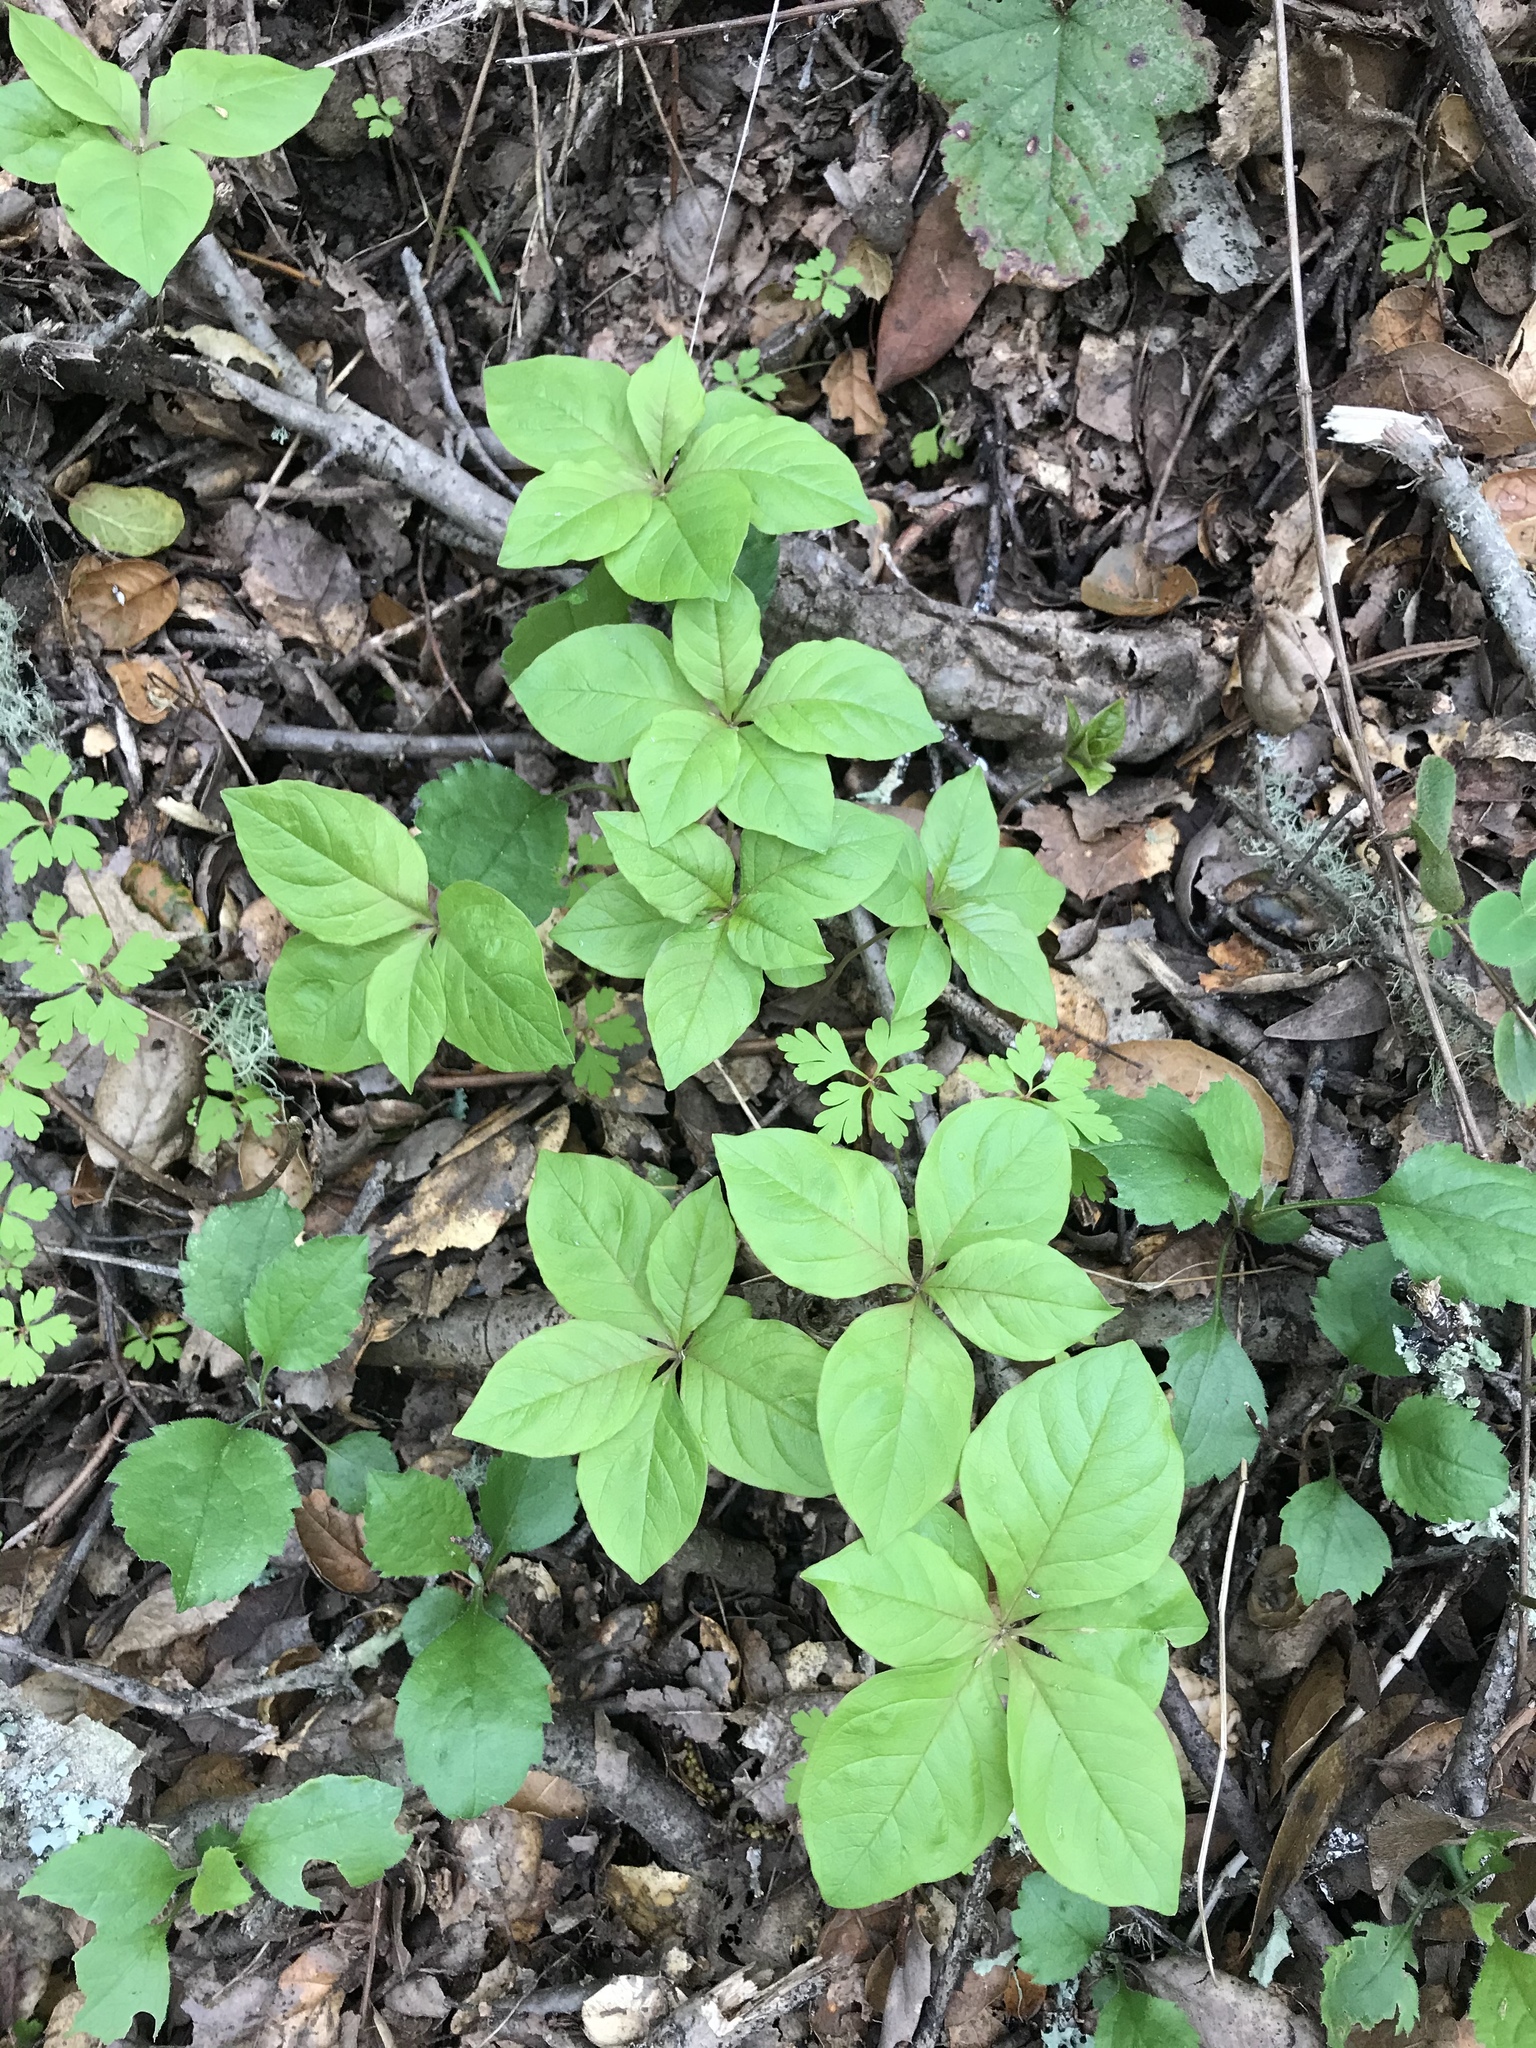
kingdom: Plantae
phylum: Tracheophyta
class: Magnoliopsida
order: Ericales
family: Primulaceae
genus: Lysimachia
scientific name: Lysimachia latifolia
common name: Pacific starflower
